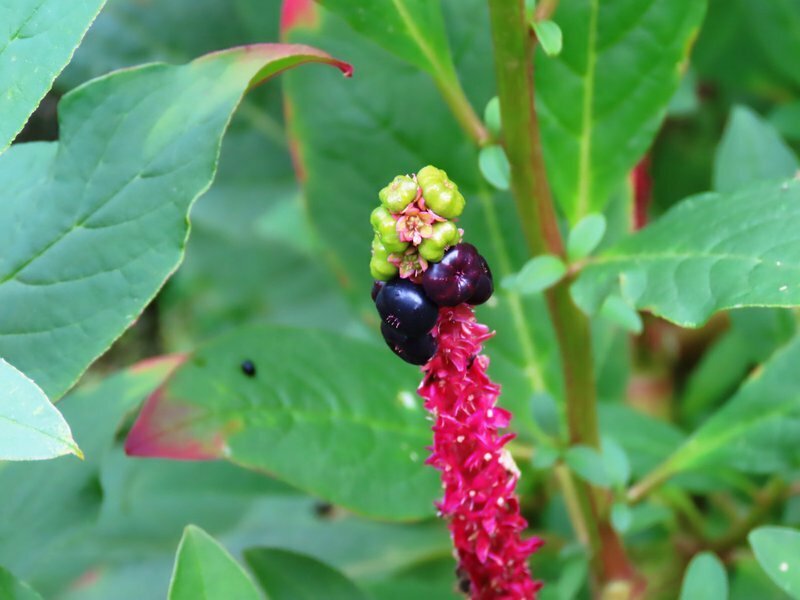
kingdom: Plantae
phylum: Tracheophyta
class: Magnoliopsida
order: Caryophyllales
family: Phytolaccaceae
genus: Phytolacca
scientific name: Phytolacca icosandra
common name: Button pokeweed
